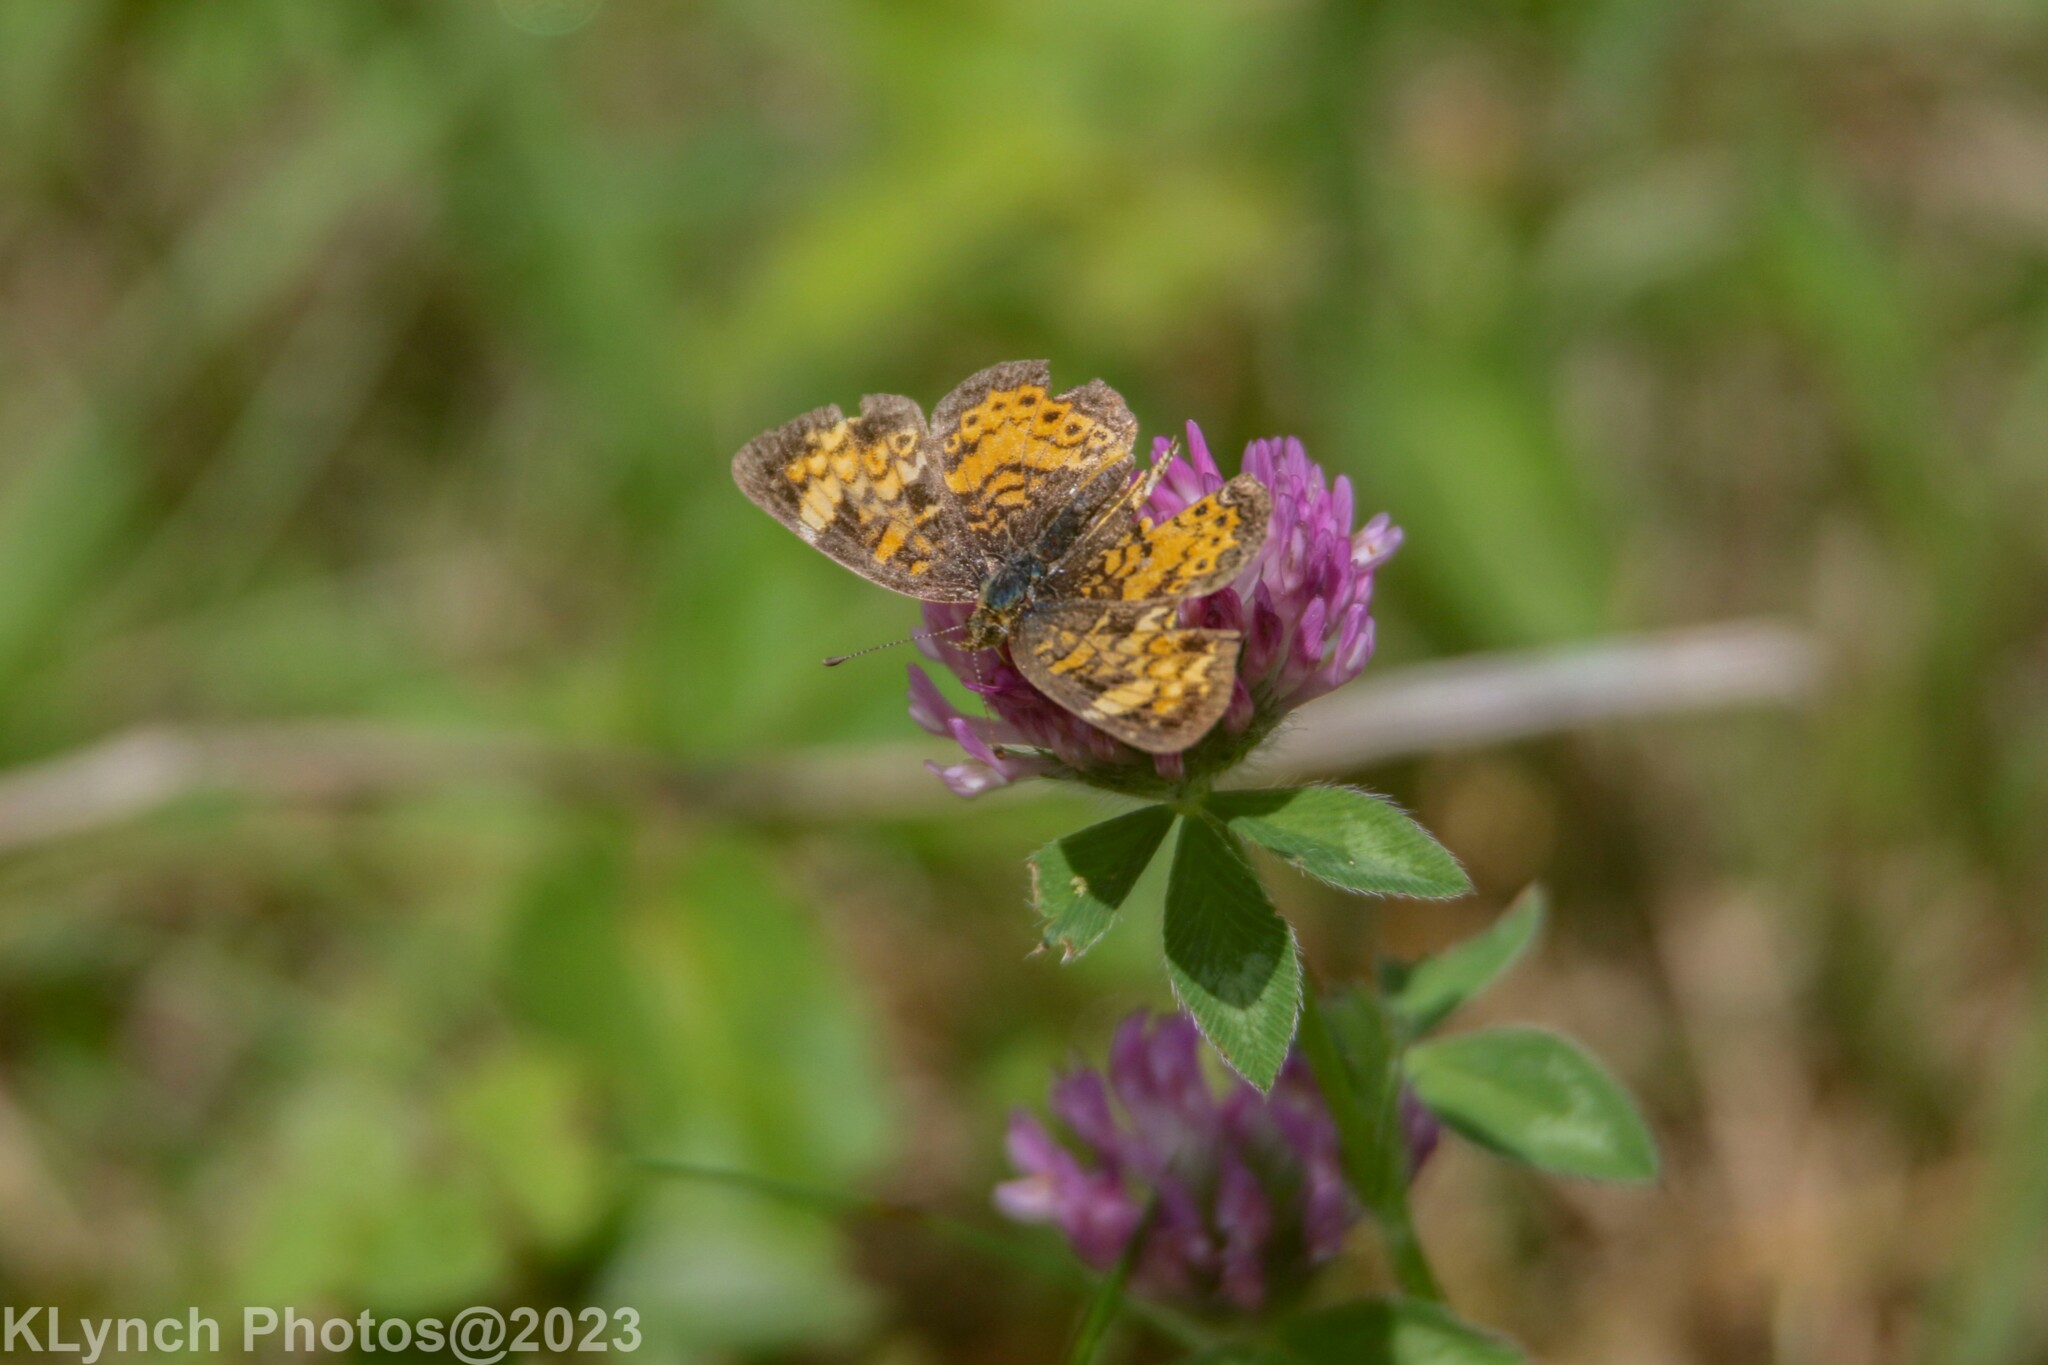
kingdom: Animalia
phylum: Arthropoda
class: Insecta
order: Lepidoptera
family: Nymphalidae
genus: Phyciodes
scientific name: Phyciodes tharos
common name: Pearl crescent
